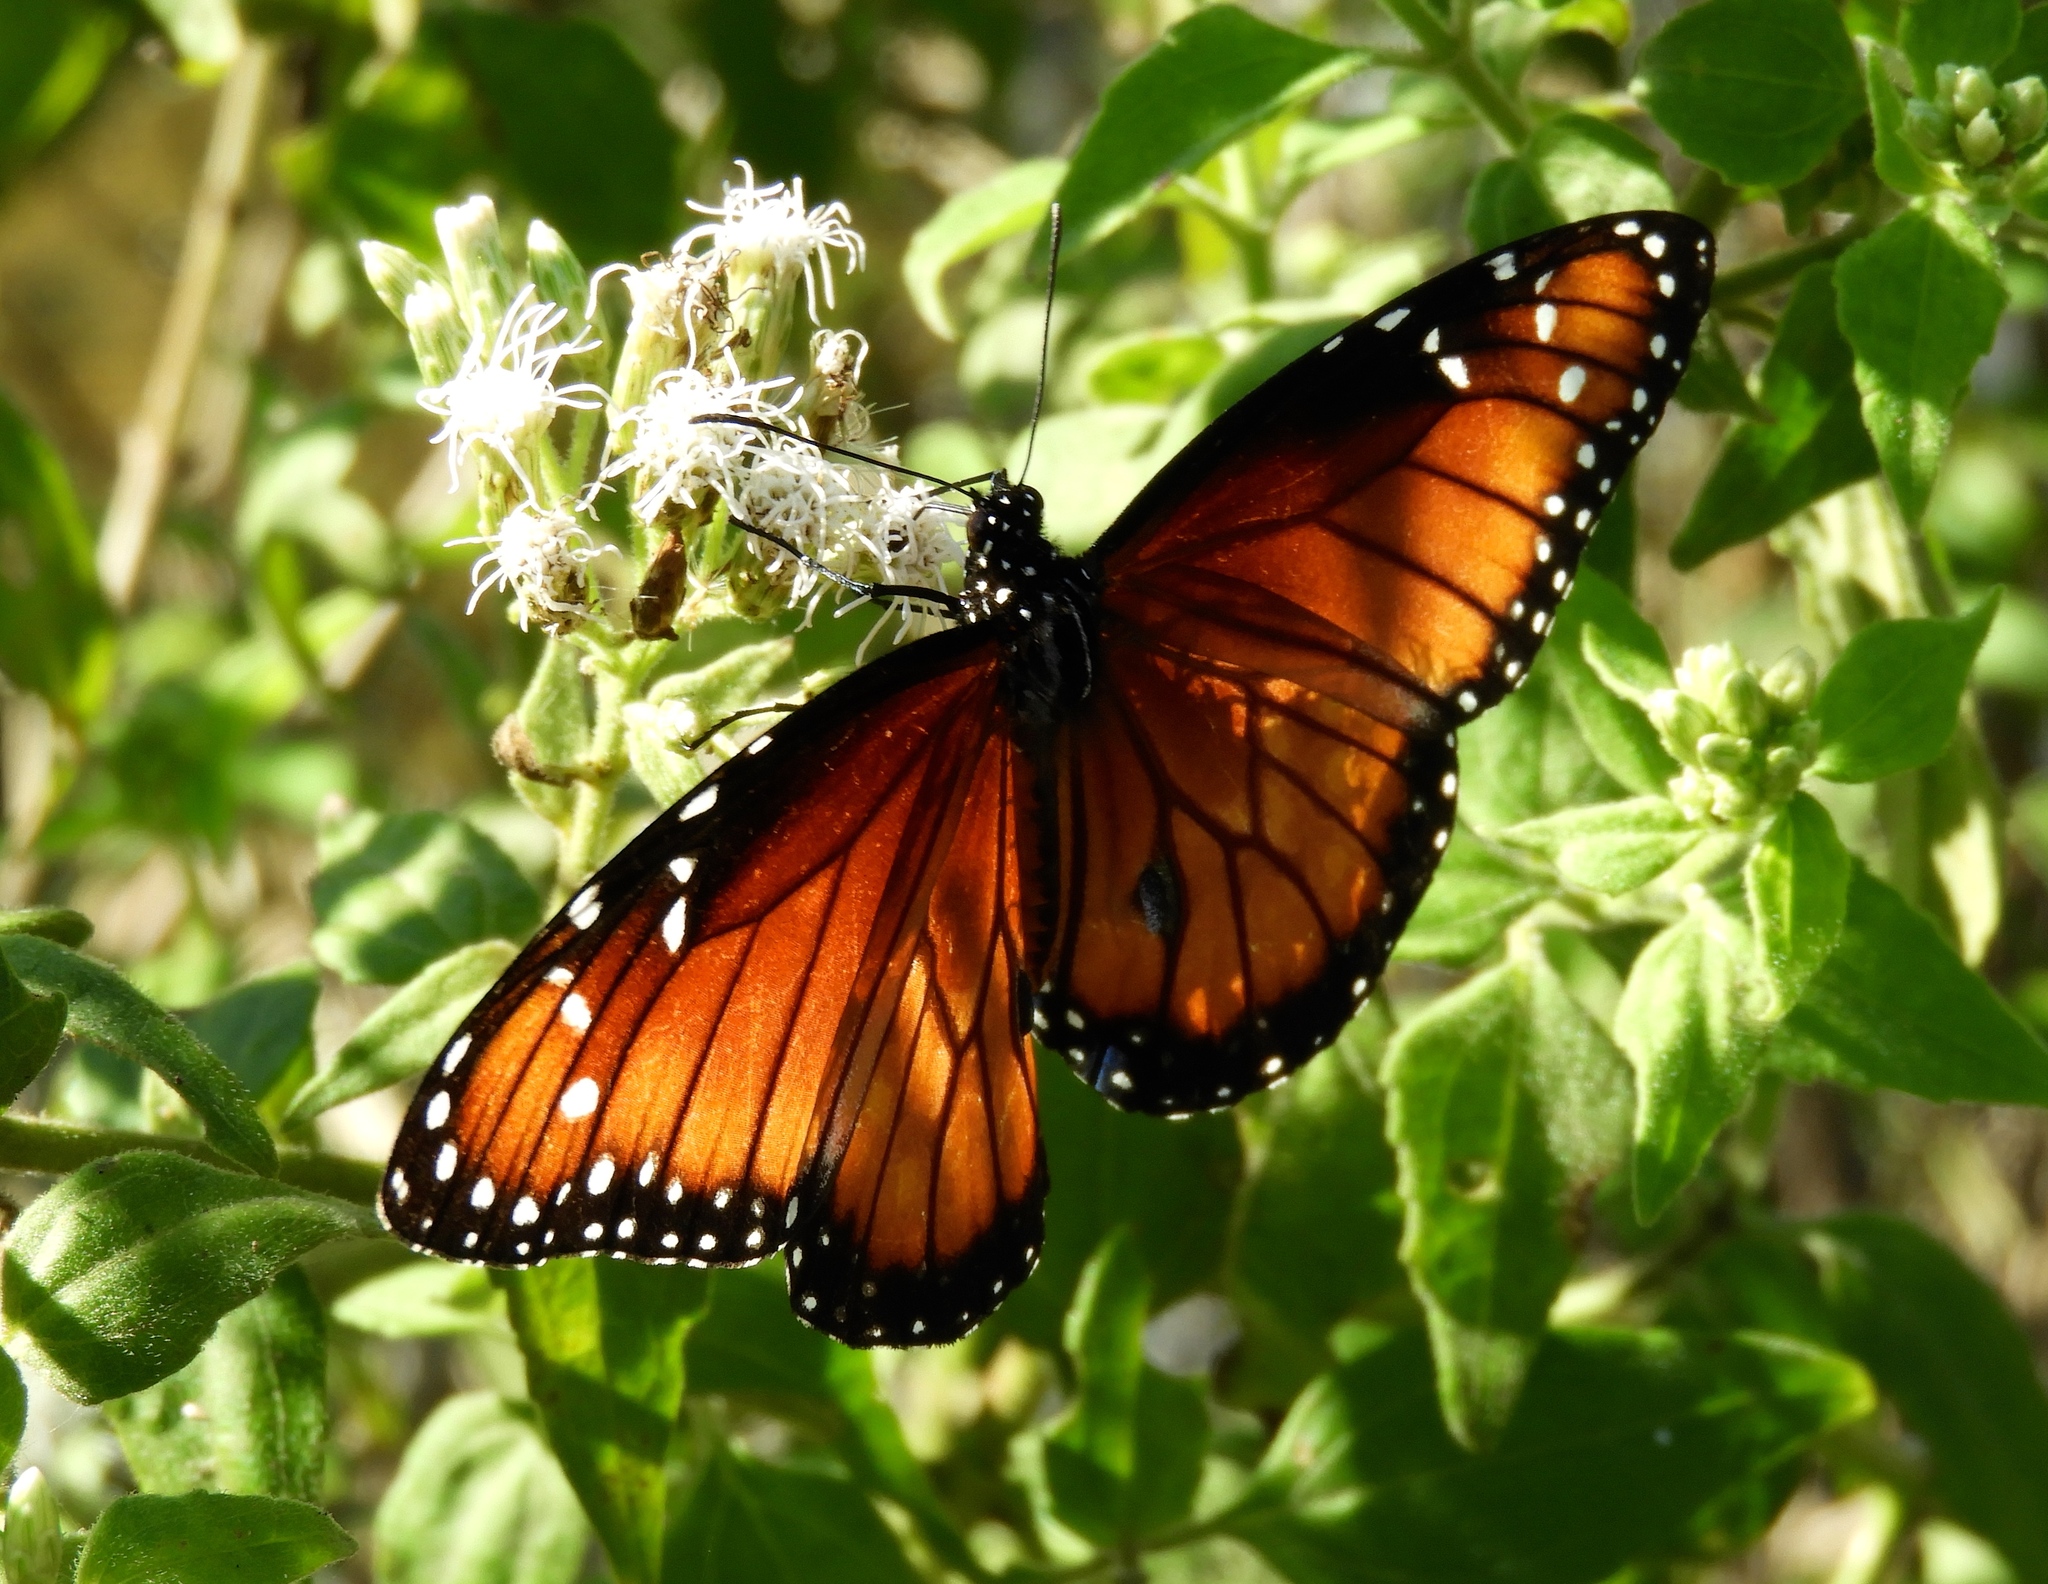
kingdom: Animalia
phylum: Arthropoda
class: Insecta
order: Lepidoptera
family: Nymphalidae
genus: Danaus
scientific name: Danaus eresimus
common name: Soldier
